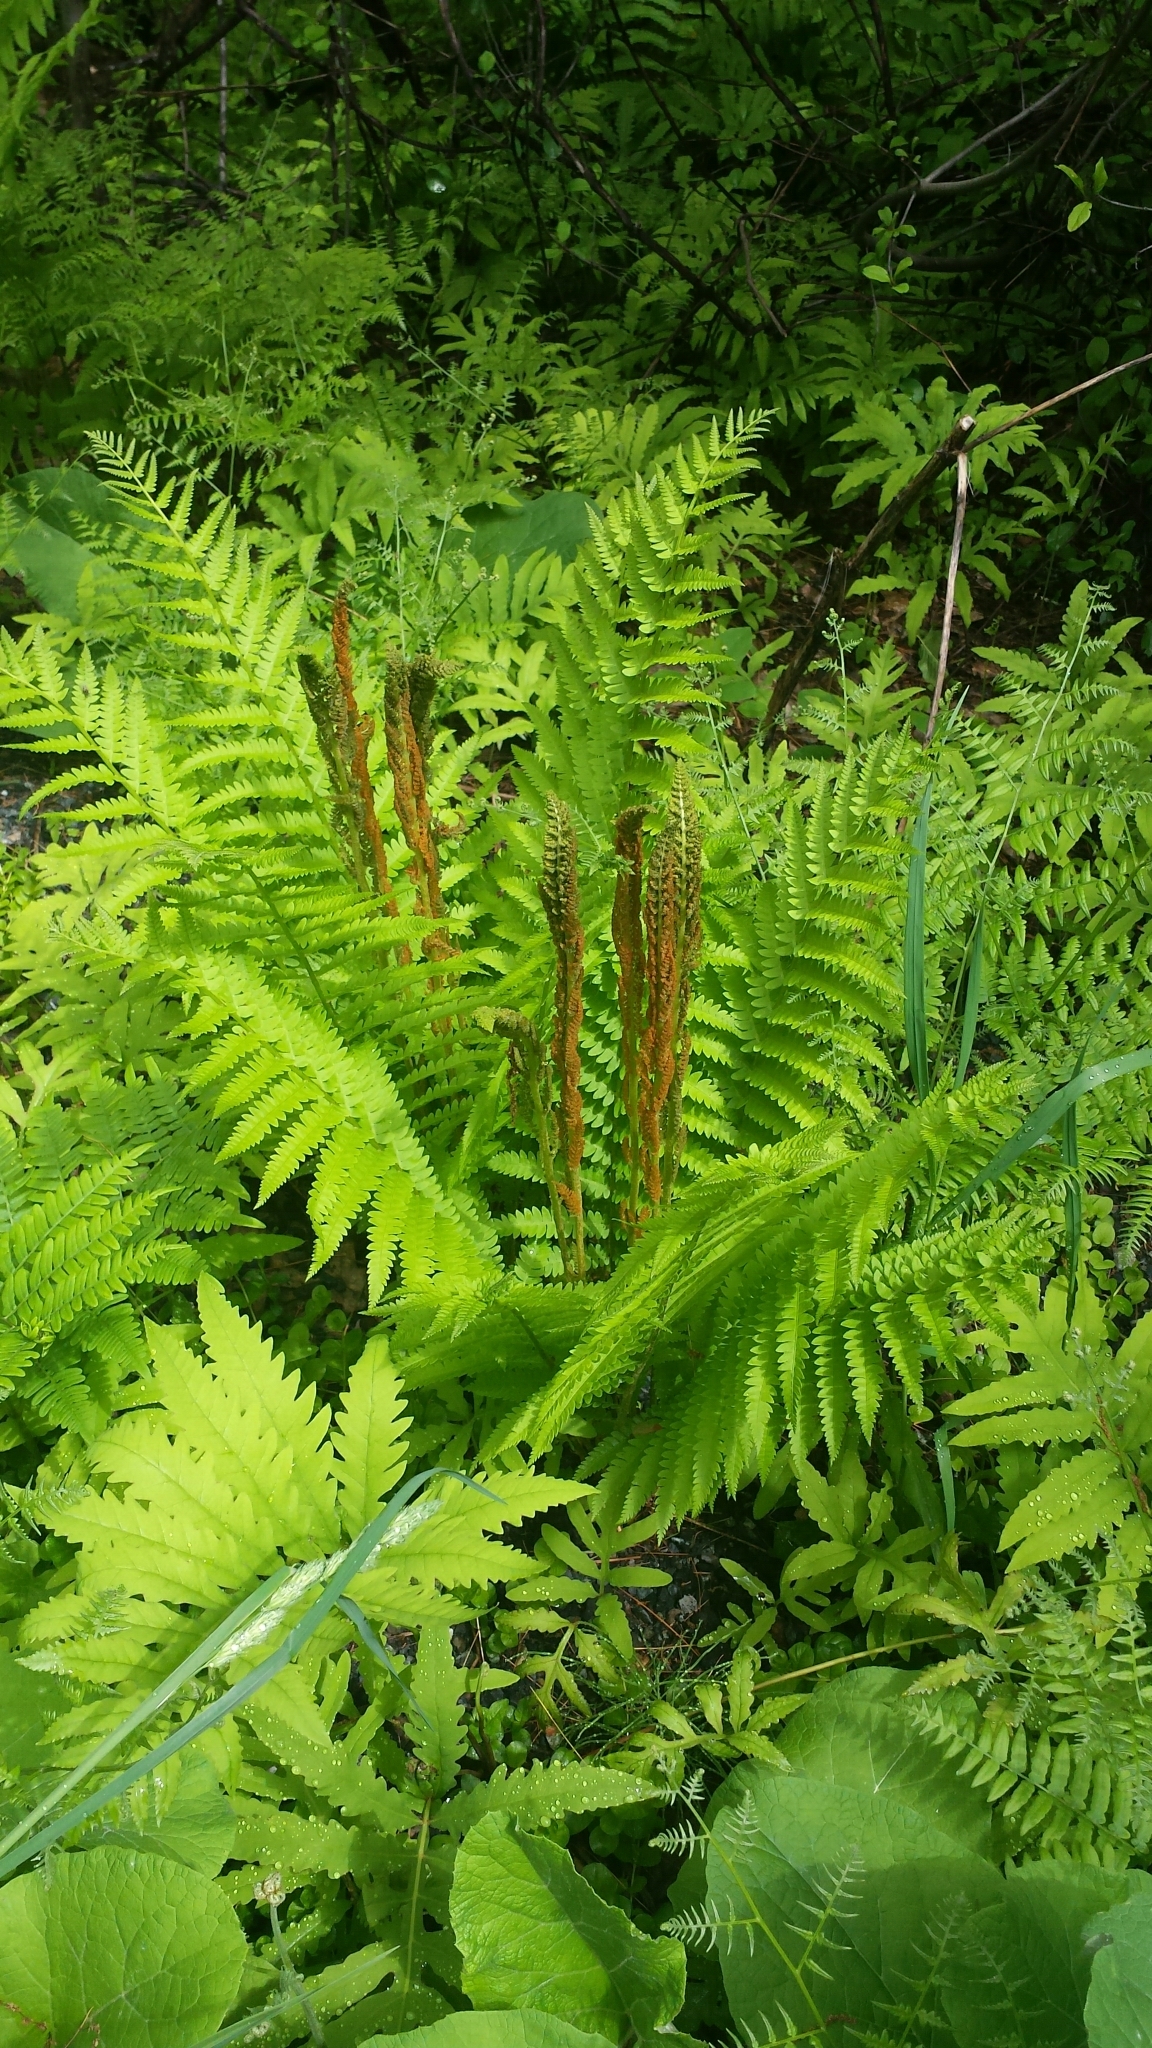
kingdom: Plantae
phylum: Tracheophyta
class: Polypodiopsida
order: Osmundales
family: Osmundaceae
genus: Osmundastrum
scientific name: Osmundastrum cinnamomeum
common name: Cinnamon fern
